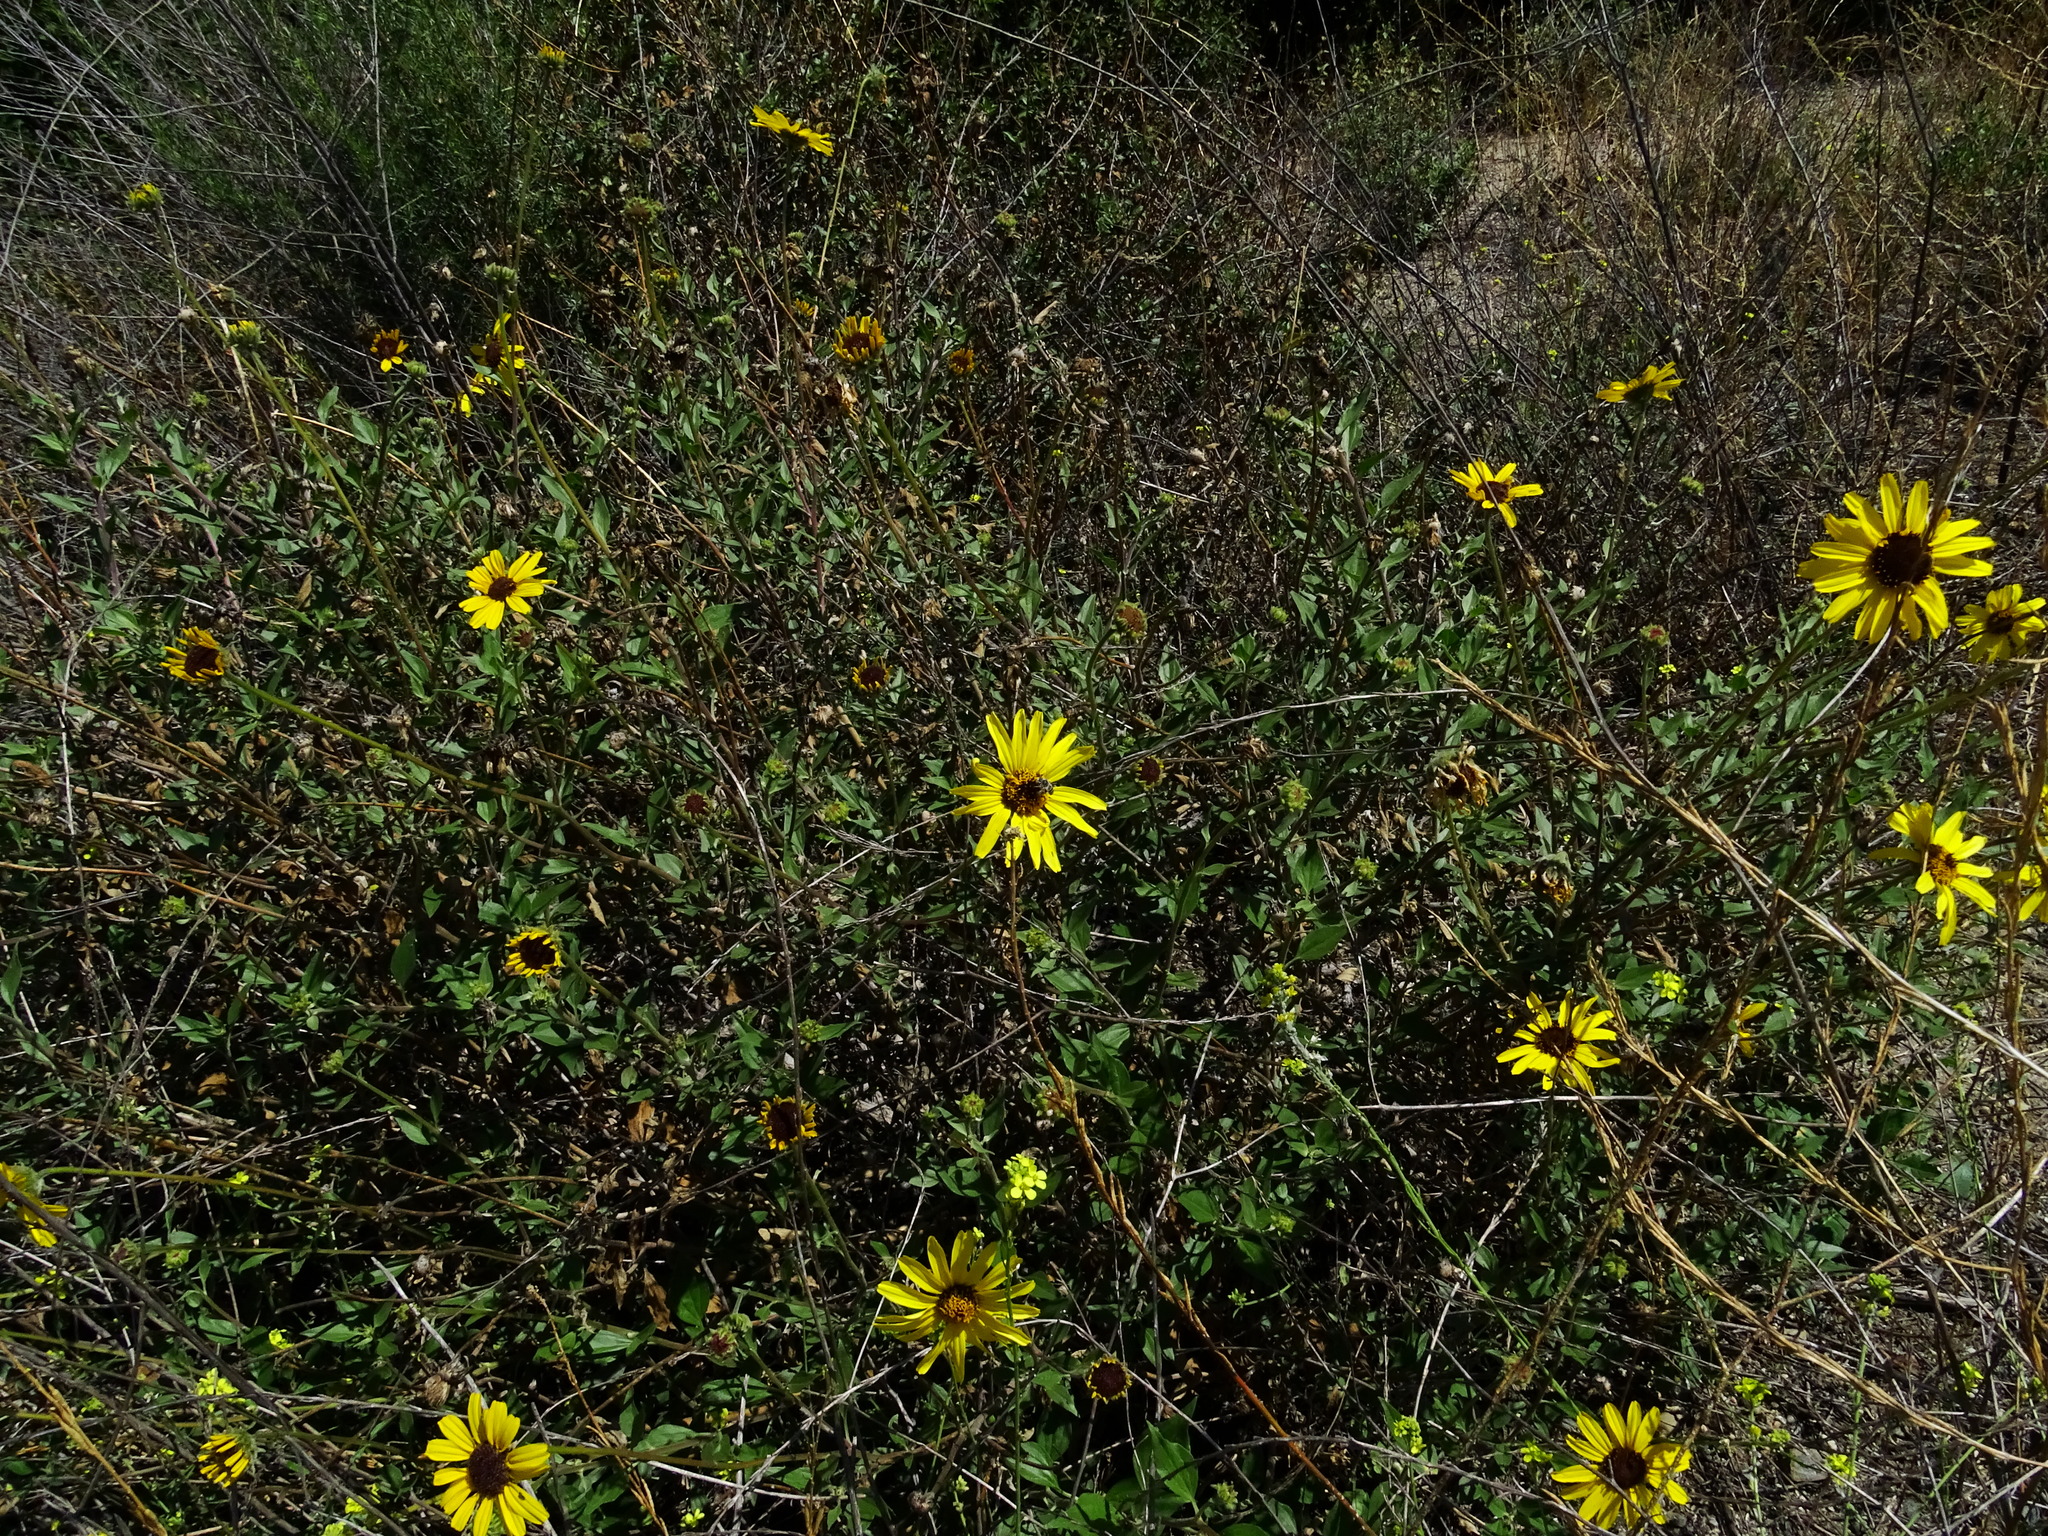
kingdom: Plantae
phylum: Tracheophyta
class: Magnoliopsida
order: Asterales
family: Asteraceae
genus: Encelia
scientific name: Encelia californica
